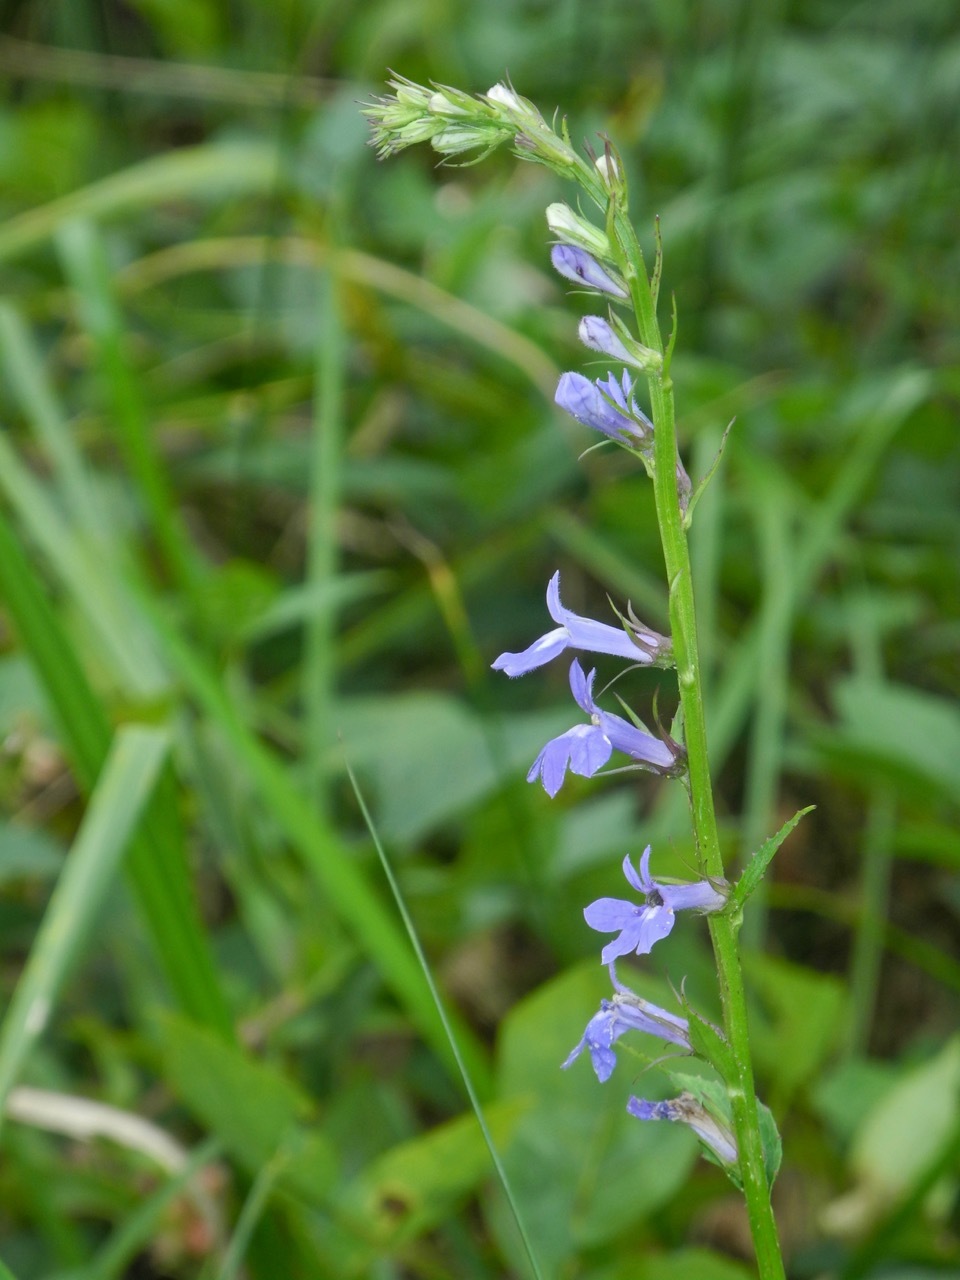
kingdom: Plantae
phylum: Tracheophyta
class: Magnoliopsida
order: Asterales
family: Campanulaceae
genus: Lobelia
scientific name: Lobelia amoena
